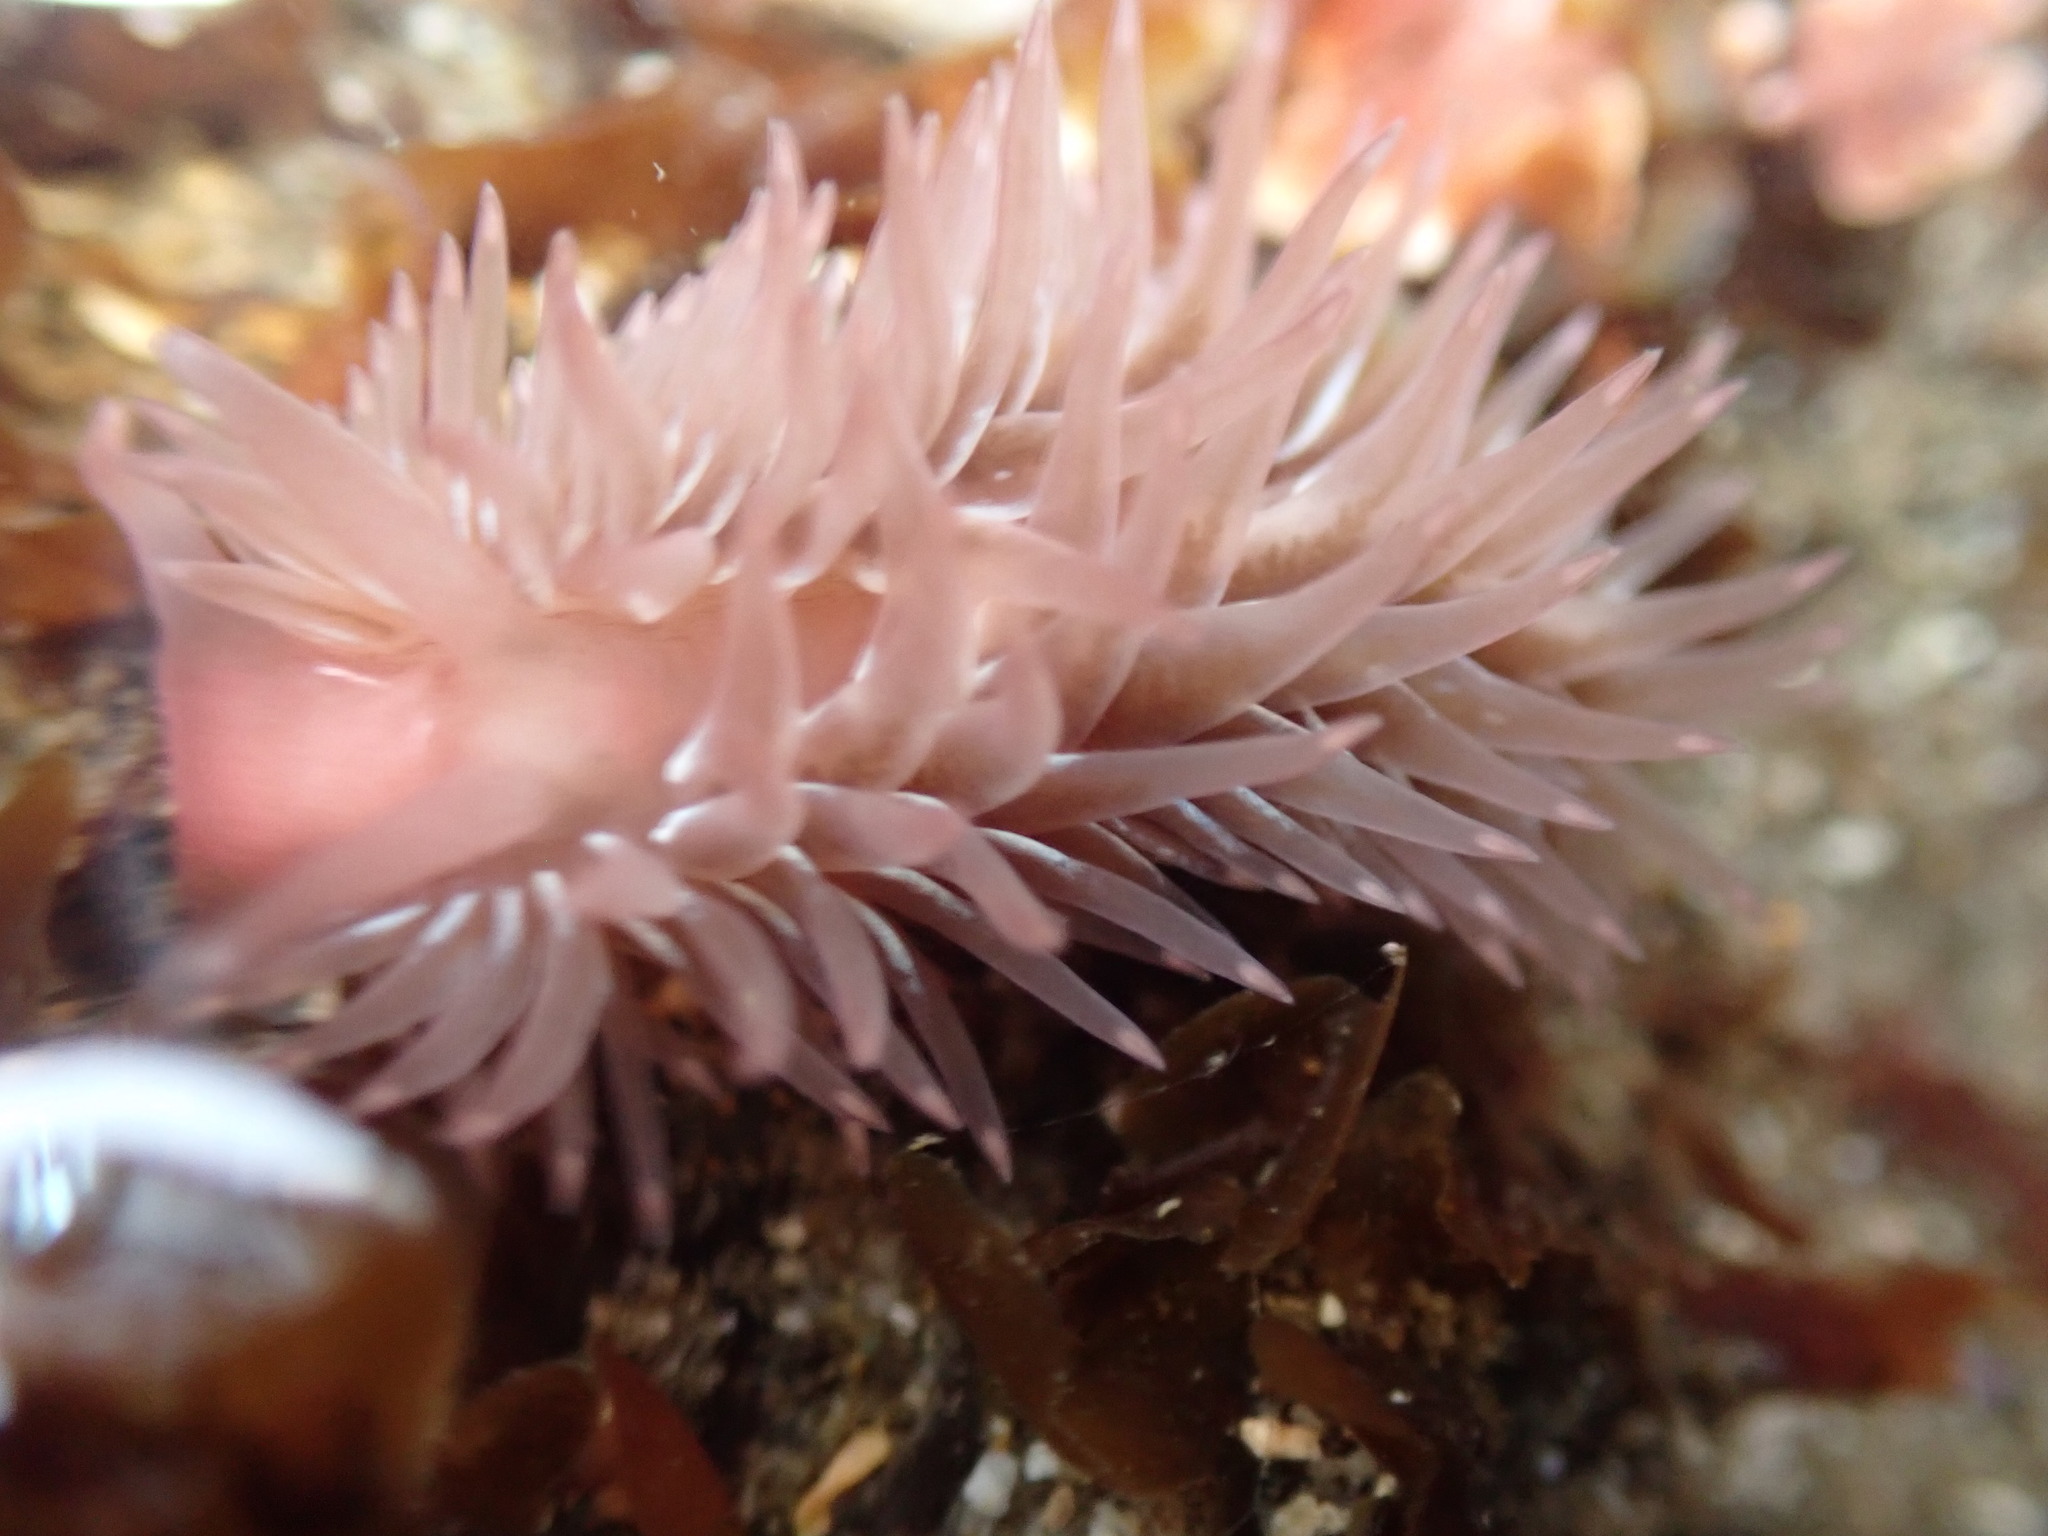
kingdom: Animalia
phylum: Mollusca
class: Gastropoda
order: Nudibranchia
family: Aeolidiidae
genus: Aeolidia
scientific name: Aeolidia loui
